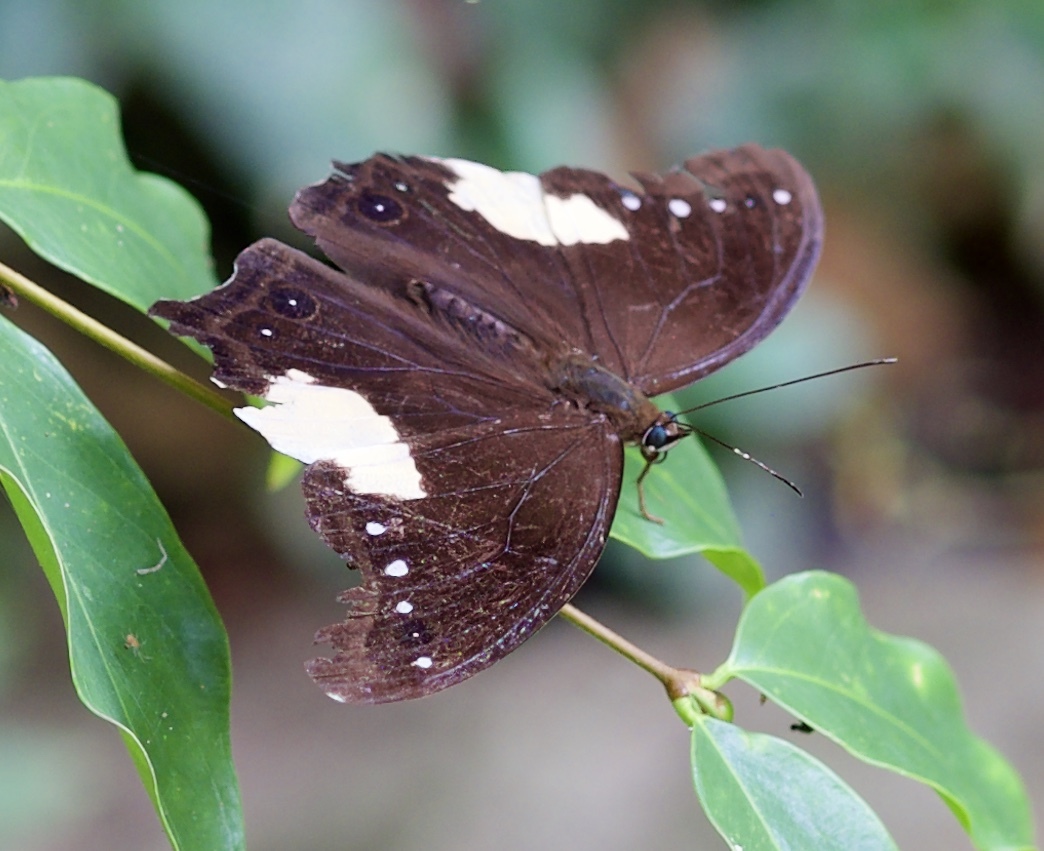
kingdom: Animalia
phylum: Arthropoda
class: Insecta
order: Lepidoptera
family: Nymphalidae
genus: Neorina
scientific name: Neorina lowii
